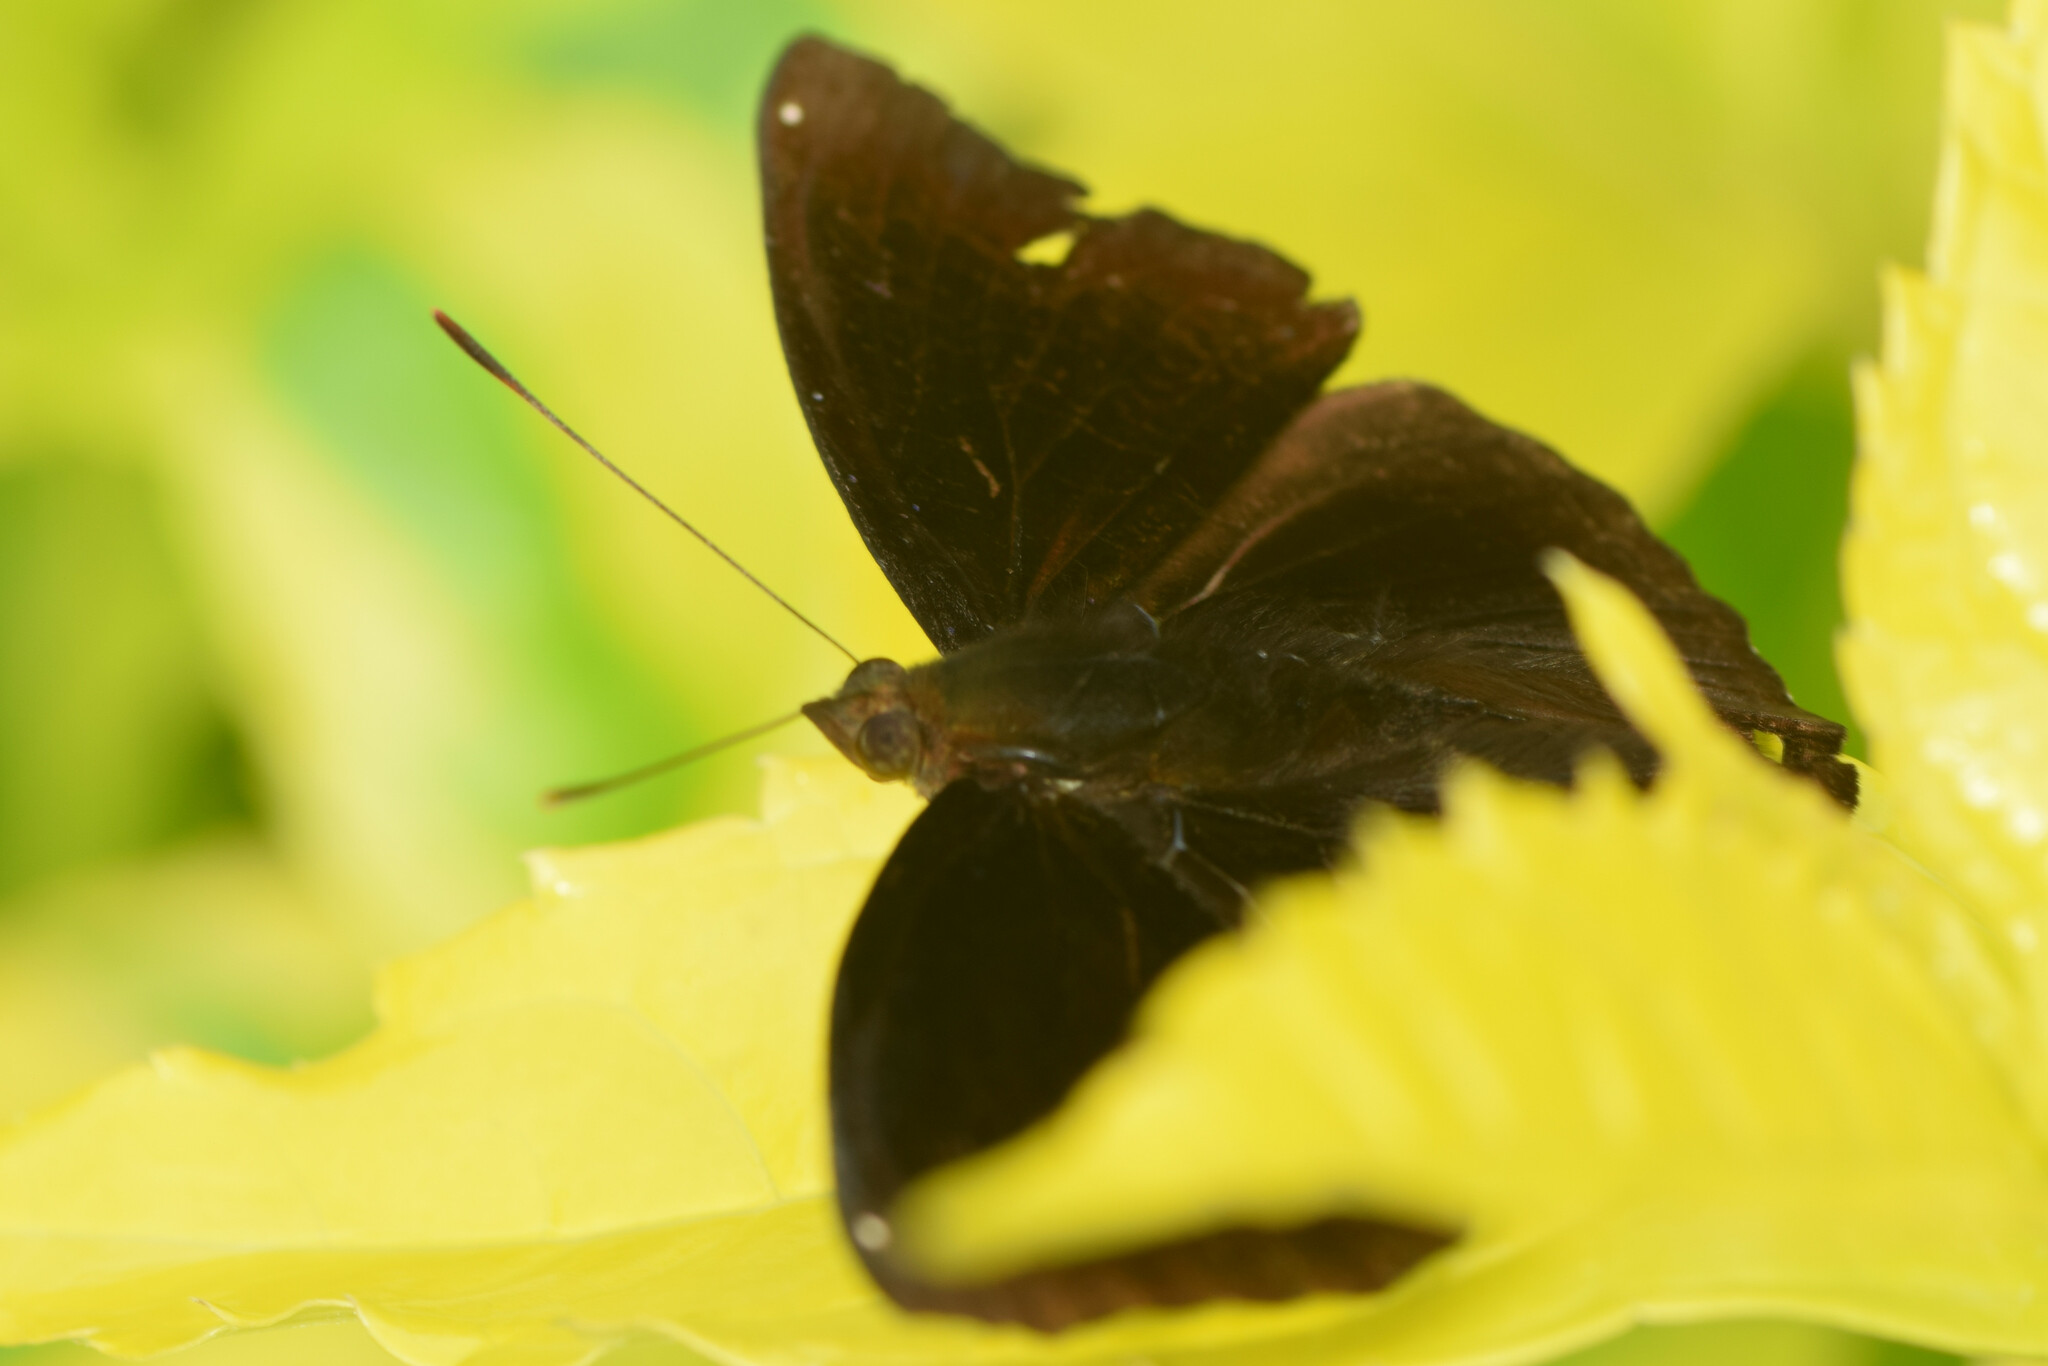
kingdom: Animalia
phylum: Arthropoda
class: Insecta
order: Lepidoptera
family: Nymphalidae
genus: Apatura
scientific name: Apatura Rohana spec
